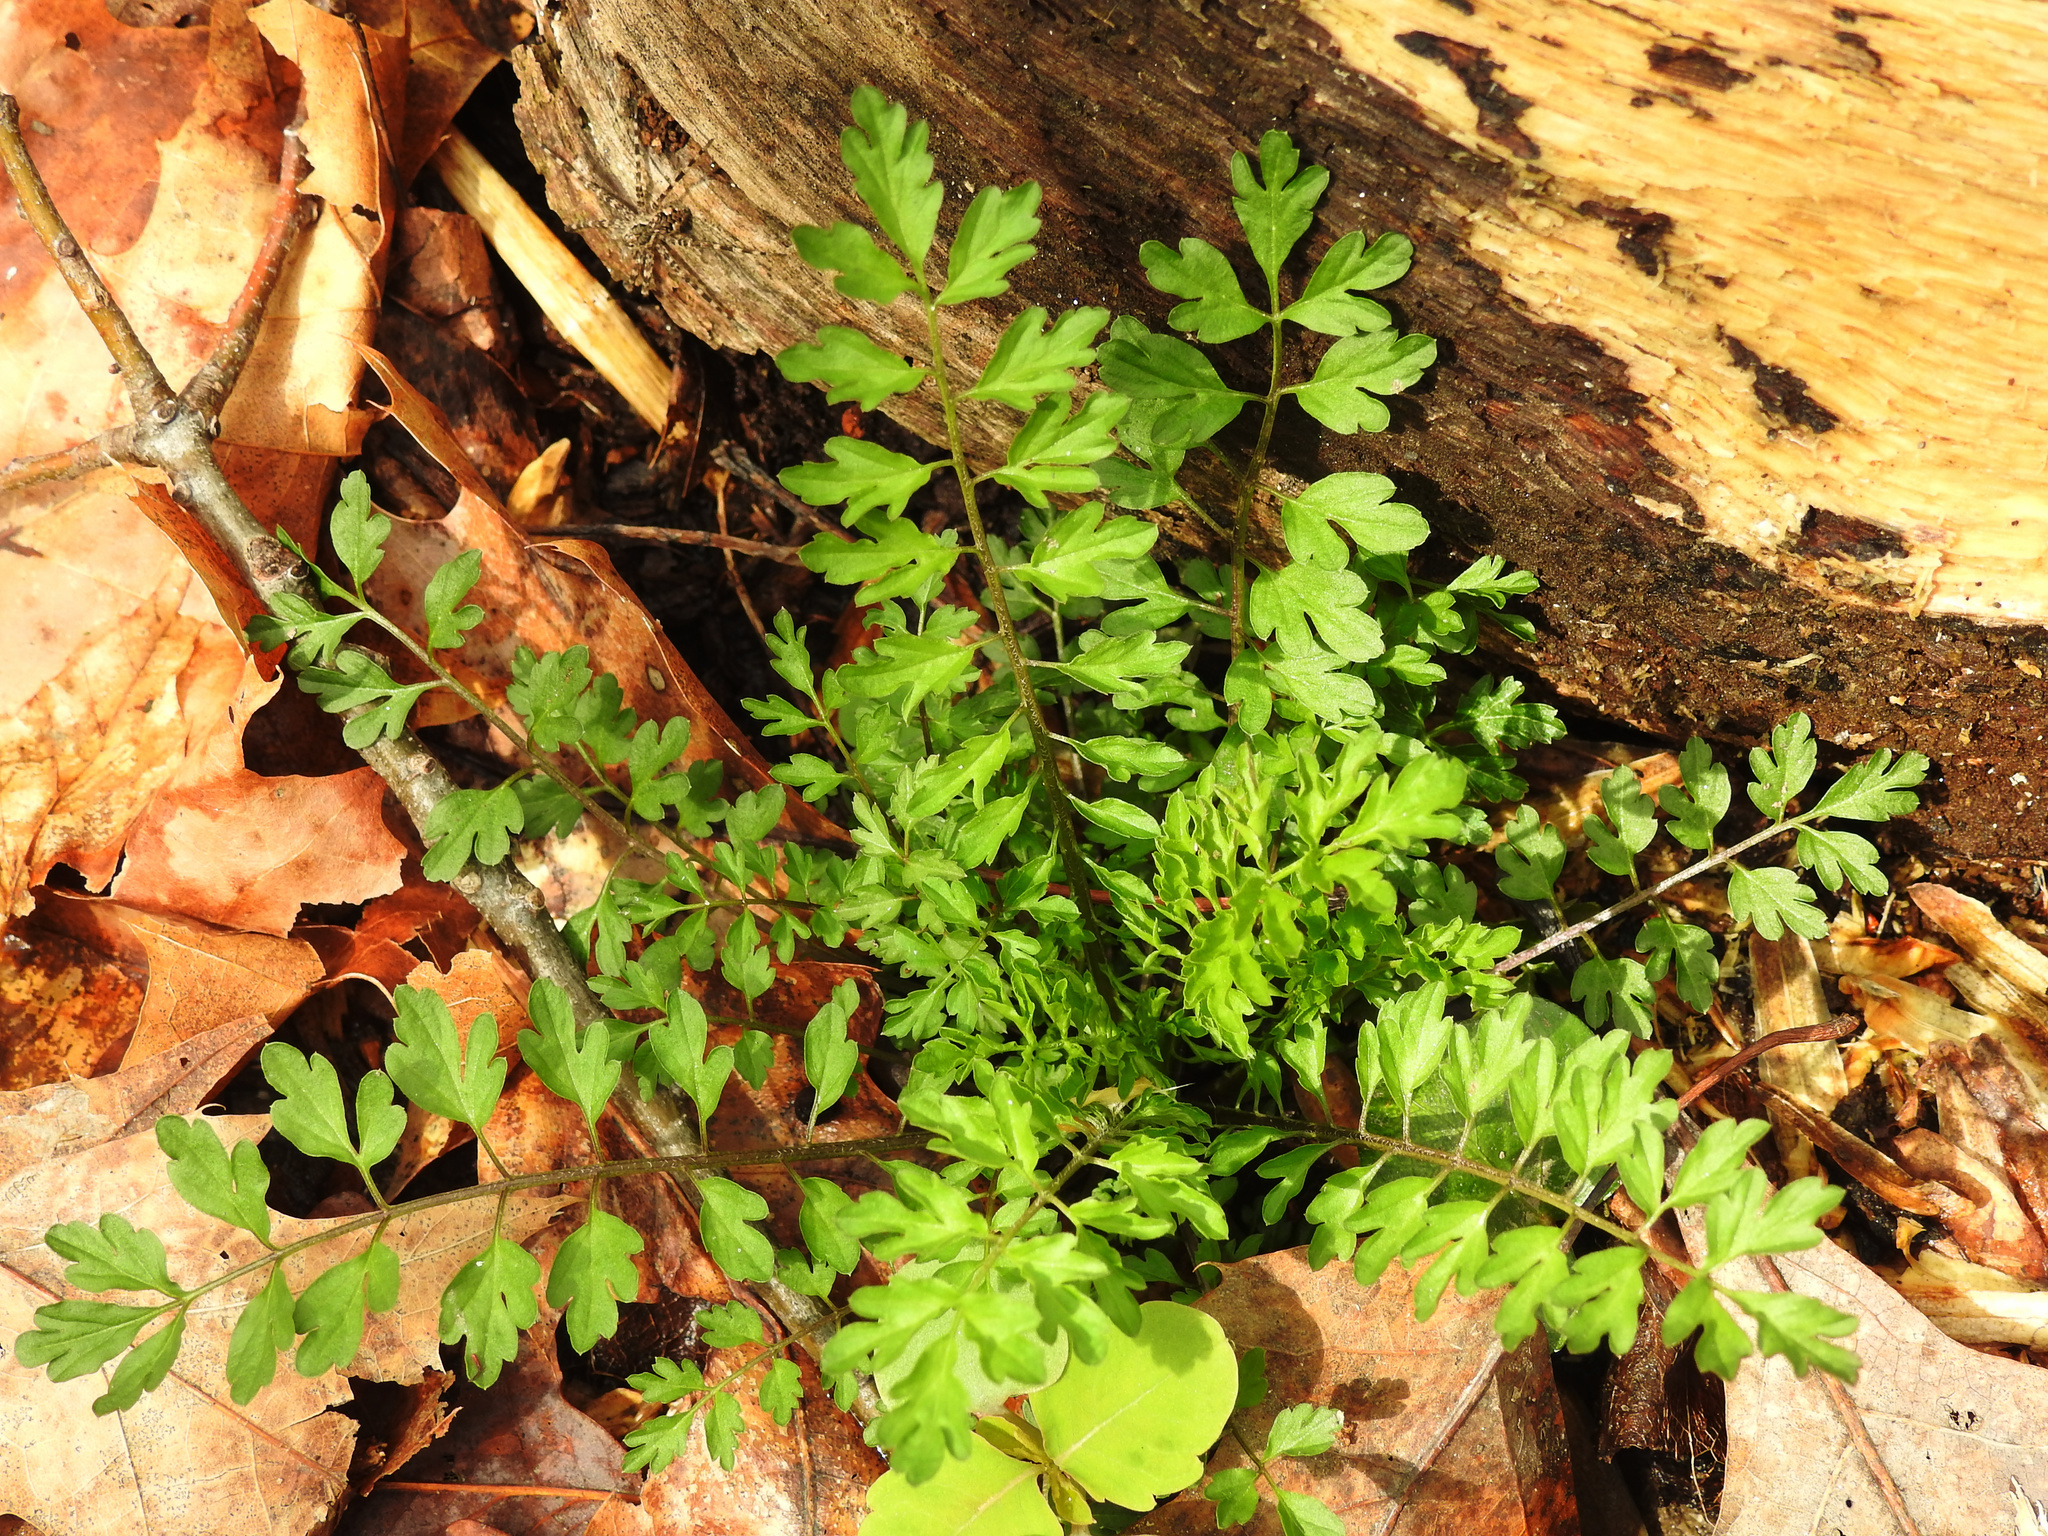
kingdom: Plantae
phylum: Tracheophyta
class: Magnoliopsida
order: Brassicales
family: Brassicaceae
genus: Cardamine
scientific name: Cardamine impatiens
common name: Narrow-leaved bitter-cress
